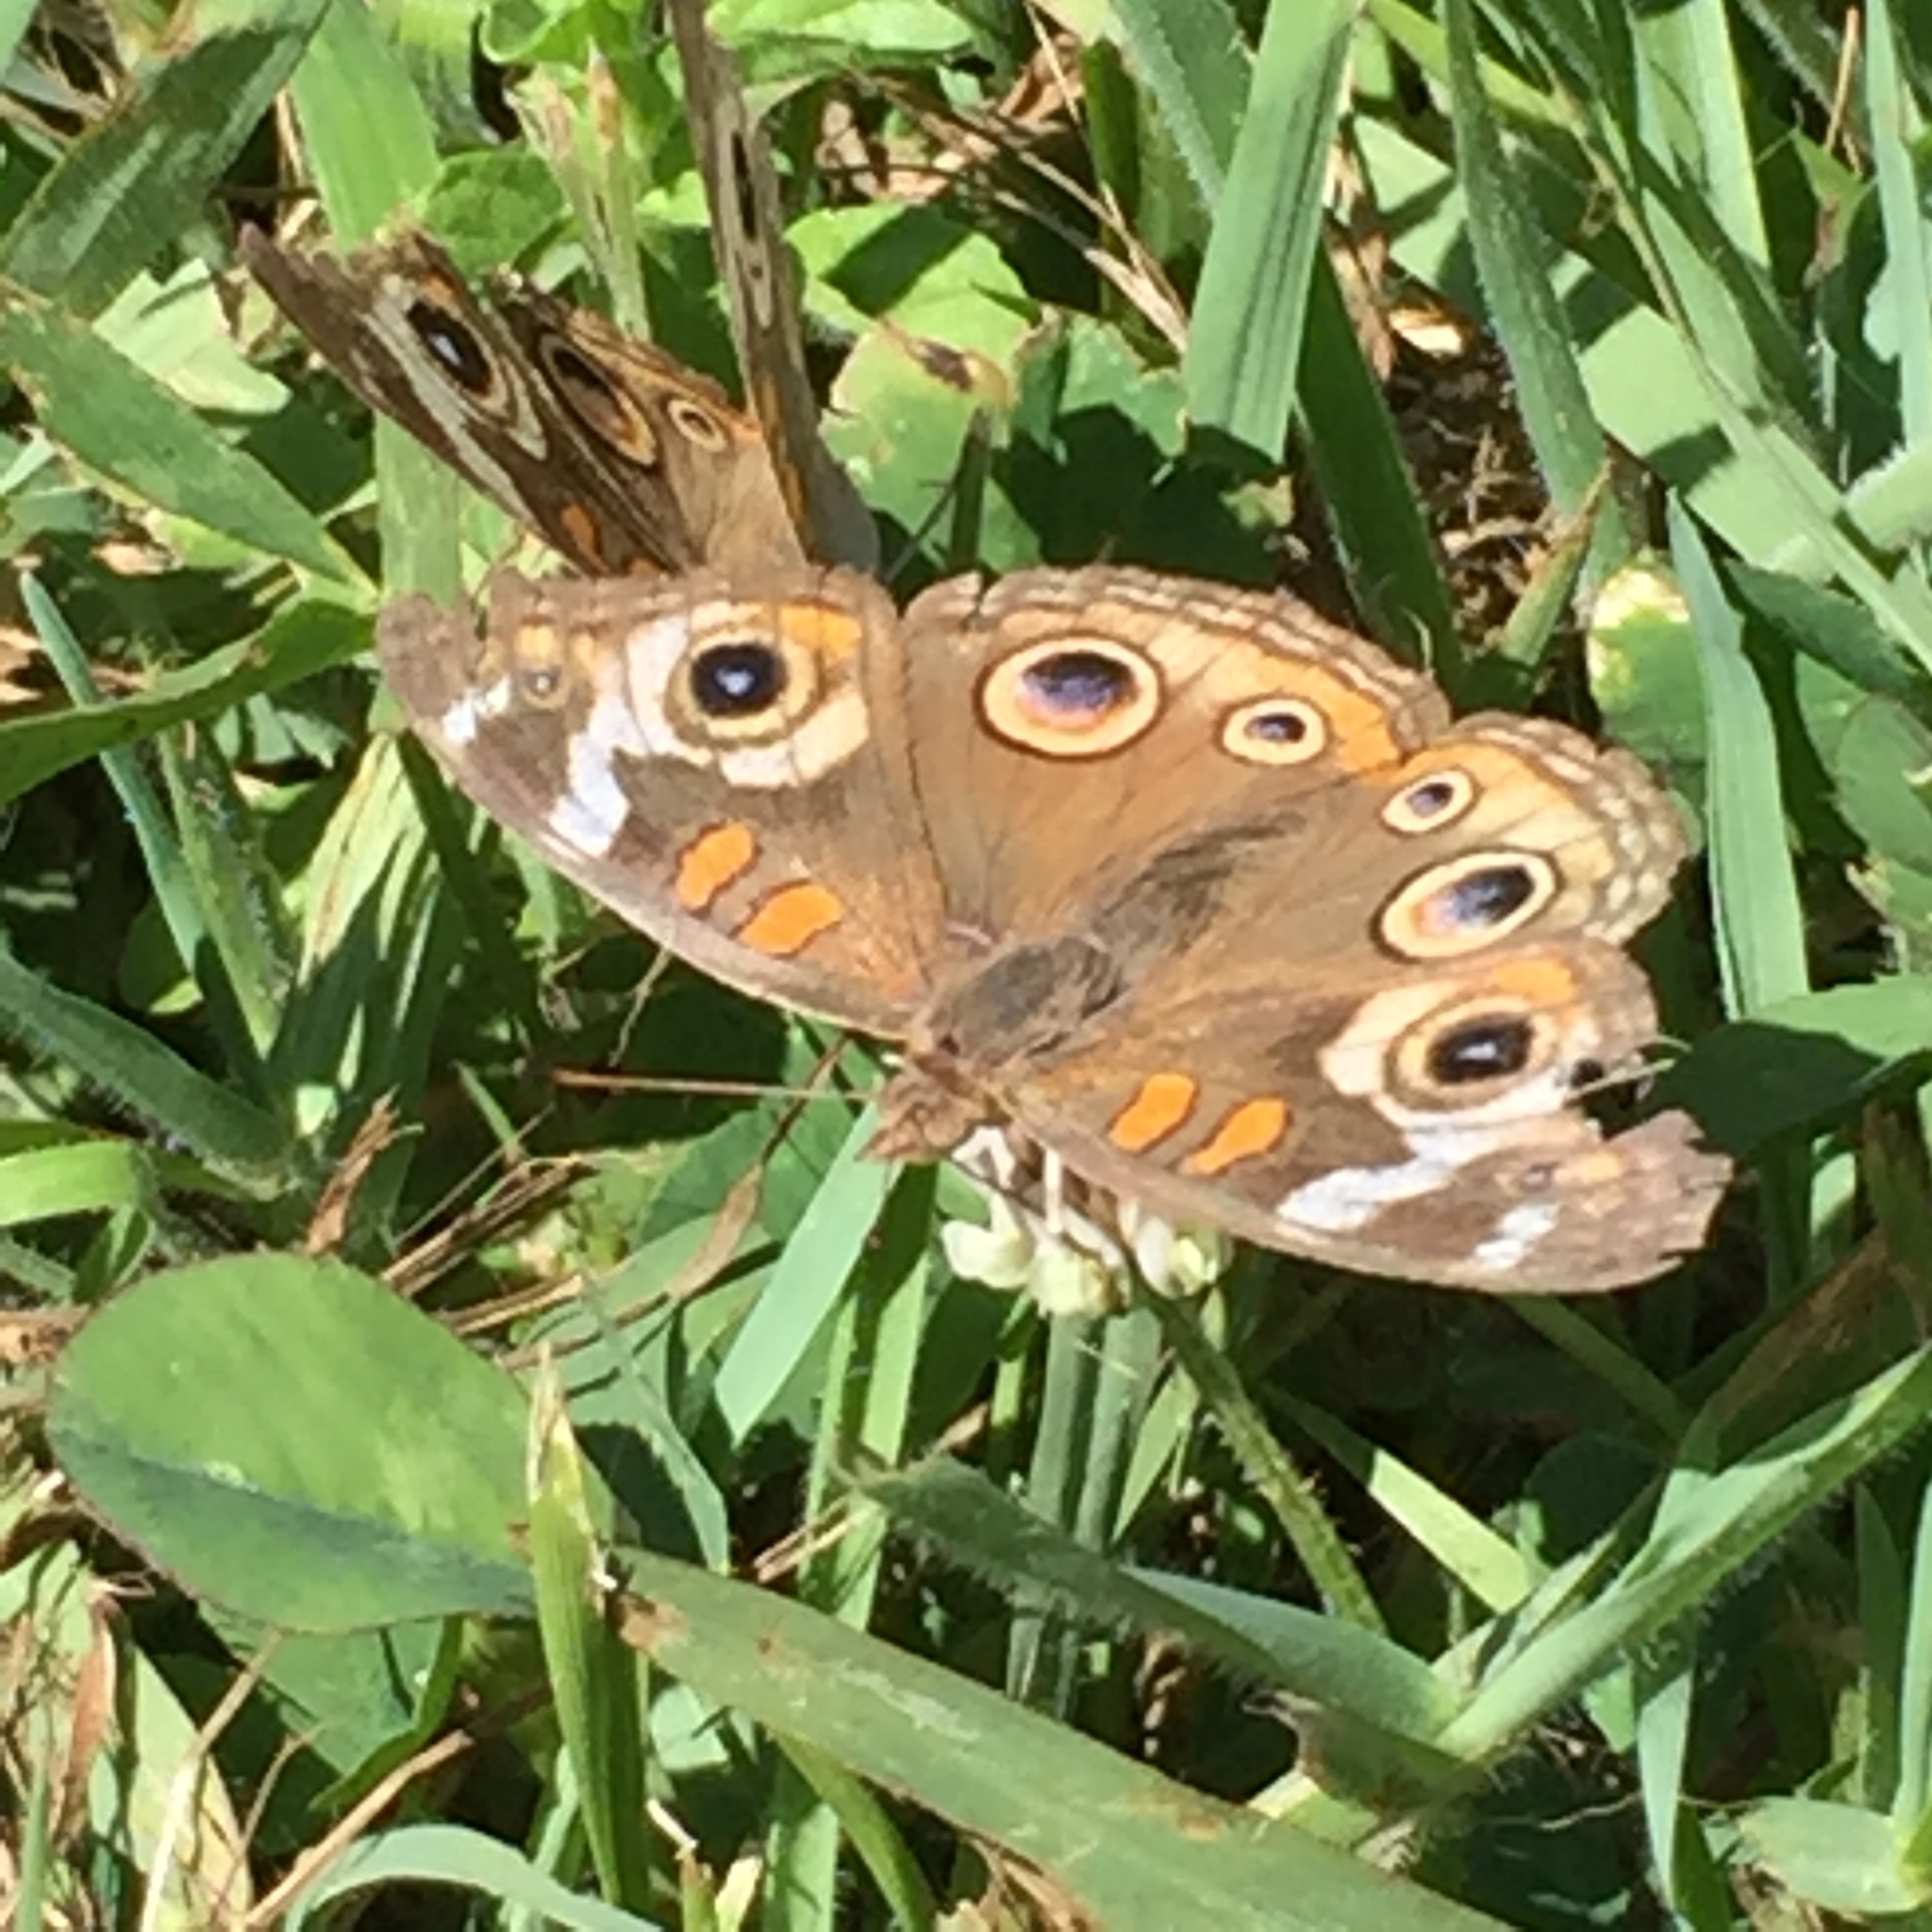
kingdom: Animalia
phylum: Arthropoda
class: Insecta
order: Lepidoptera
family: Nymphalidae
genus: Junonia
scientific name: Junonia grisea
